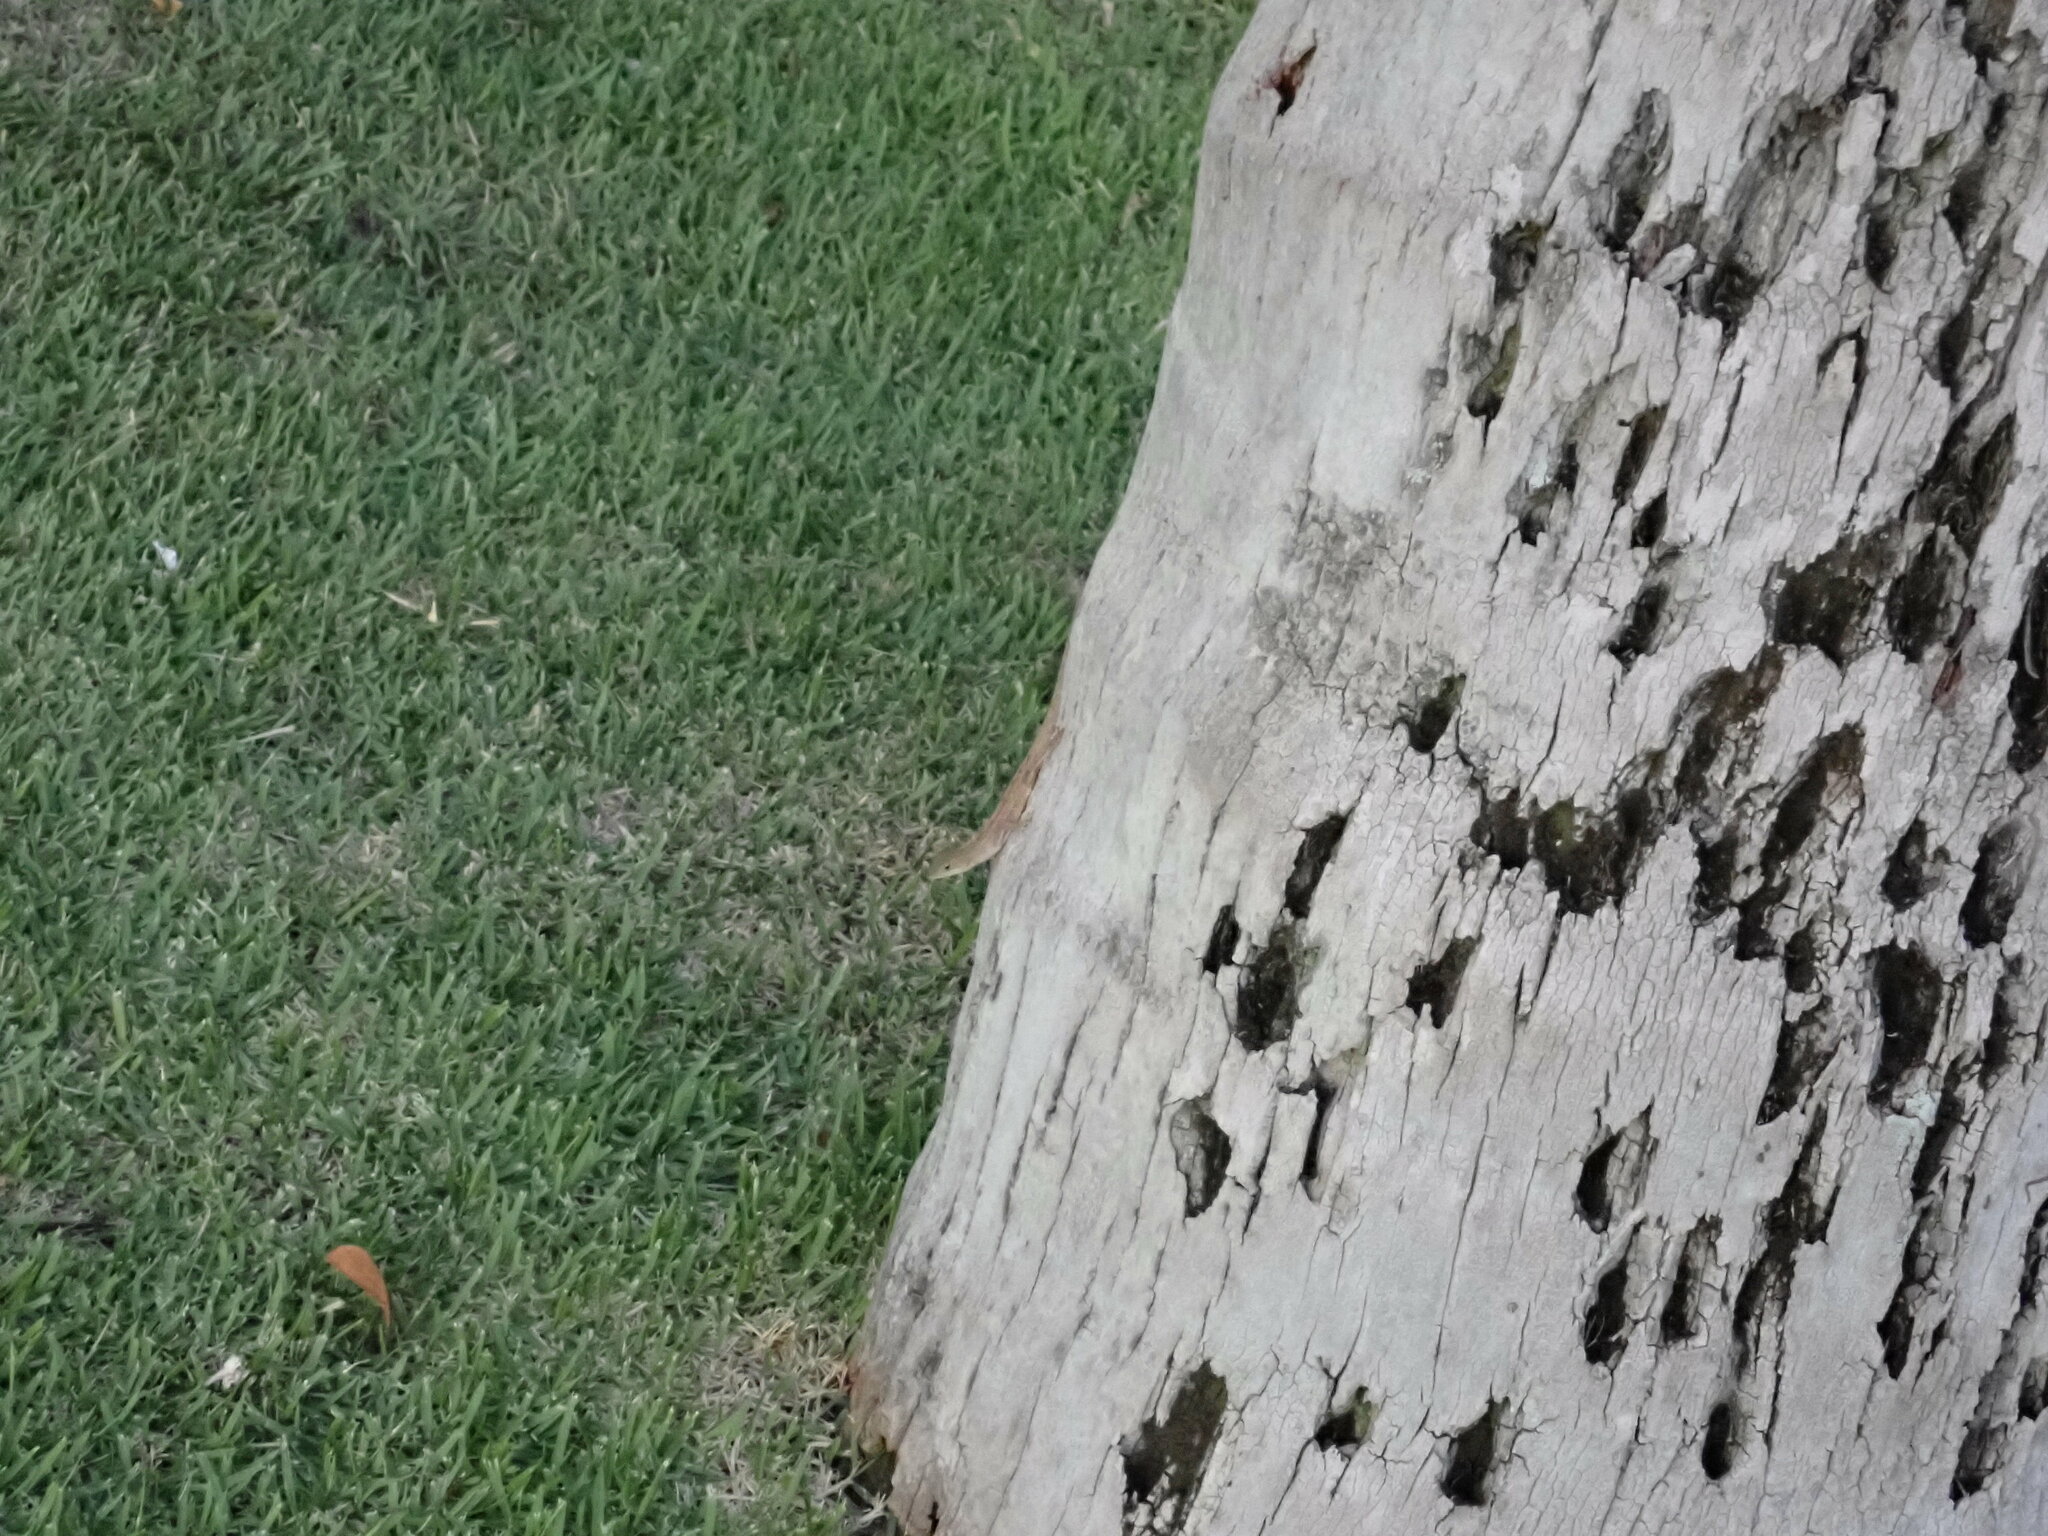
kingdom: Animalia
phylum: Chordata
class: Squamata
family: Dactyloidae
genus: Anolis
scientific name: Anolis sagrei
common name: Brown anole
